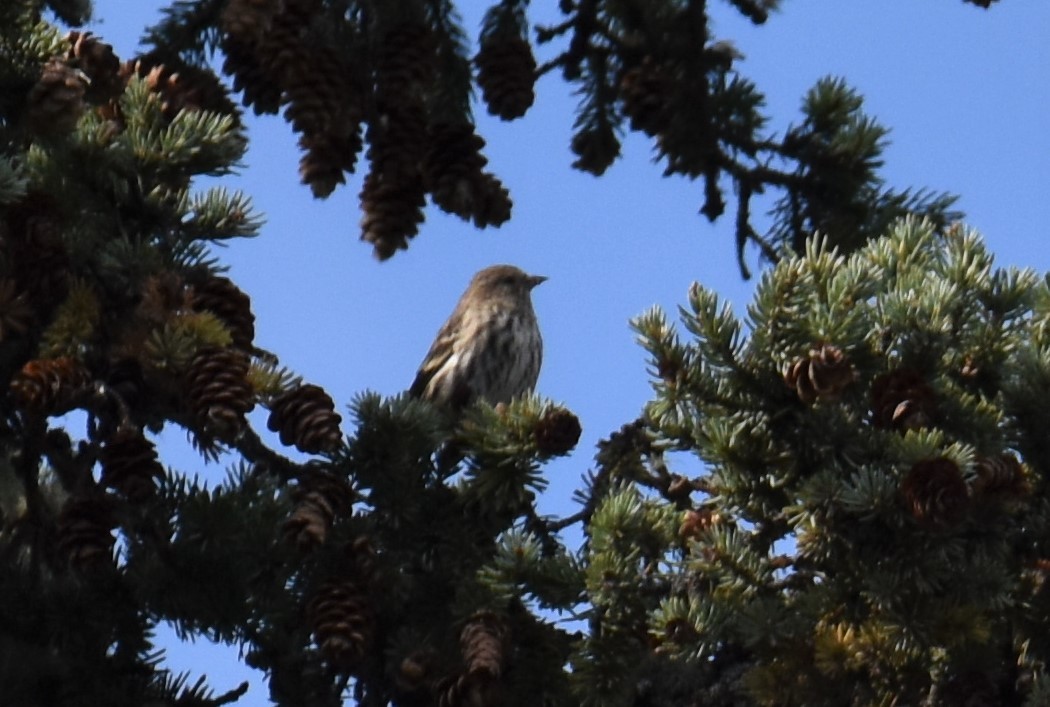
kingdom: Animalia
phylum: Chordata
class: Aves
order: Passeriformes
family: Fringillidae
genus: Spinus
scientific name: Spinus pinus
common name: Pine siskin
